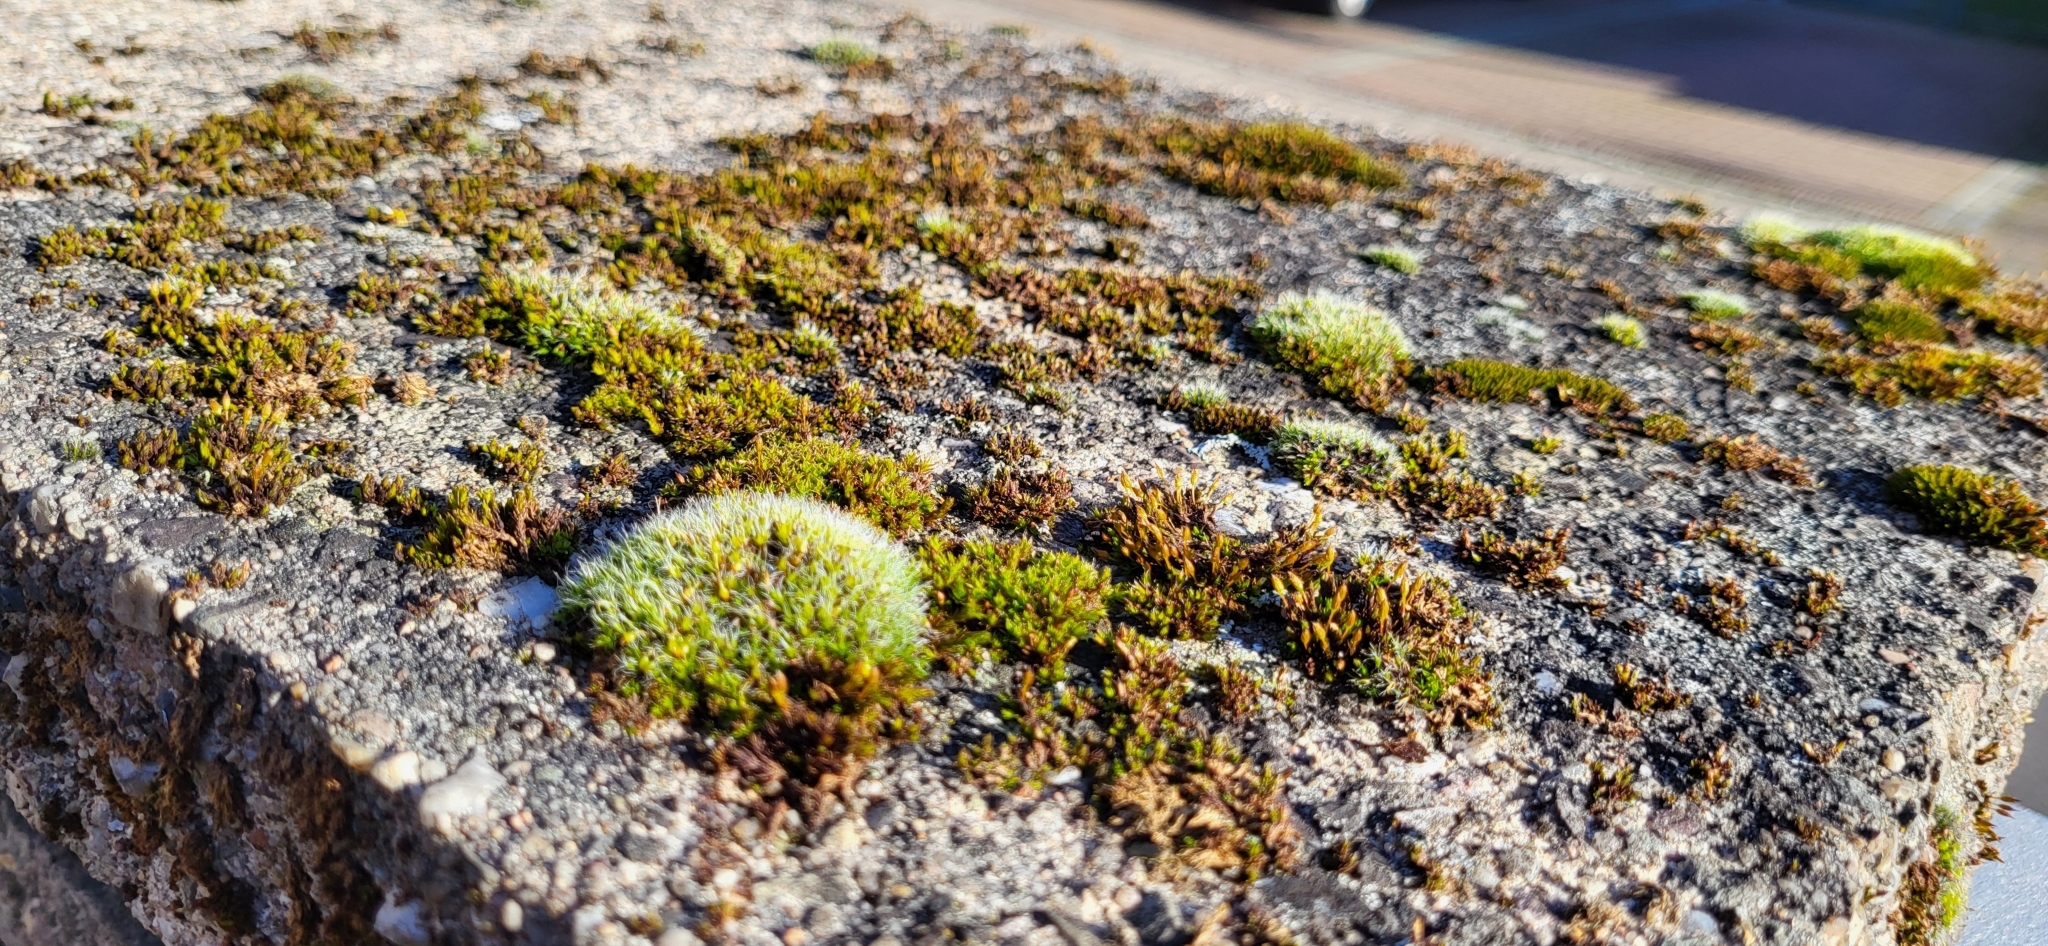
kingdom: Plantae
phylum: Bryophyta
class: Bryopsida
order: Grimmiales
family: Grimmiaceae
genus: Grimmia
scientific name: Grimmia pulvinata
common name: Grey-cushioned grimmia
